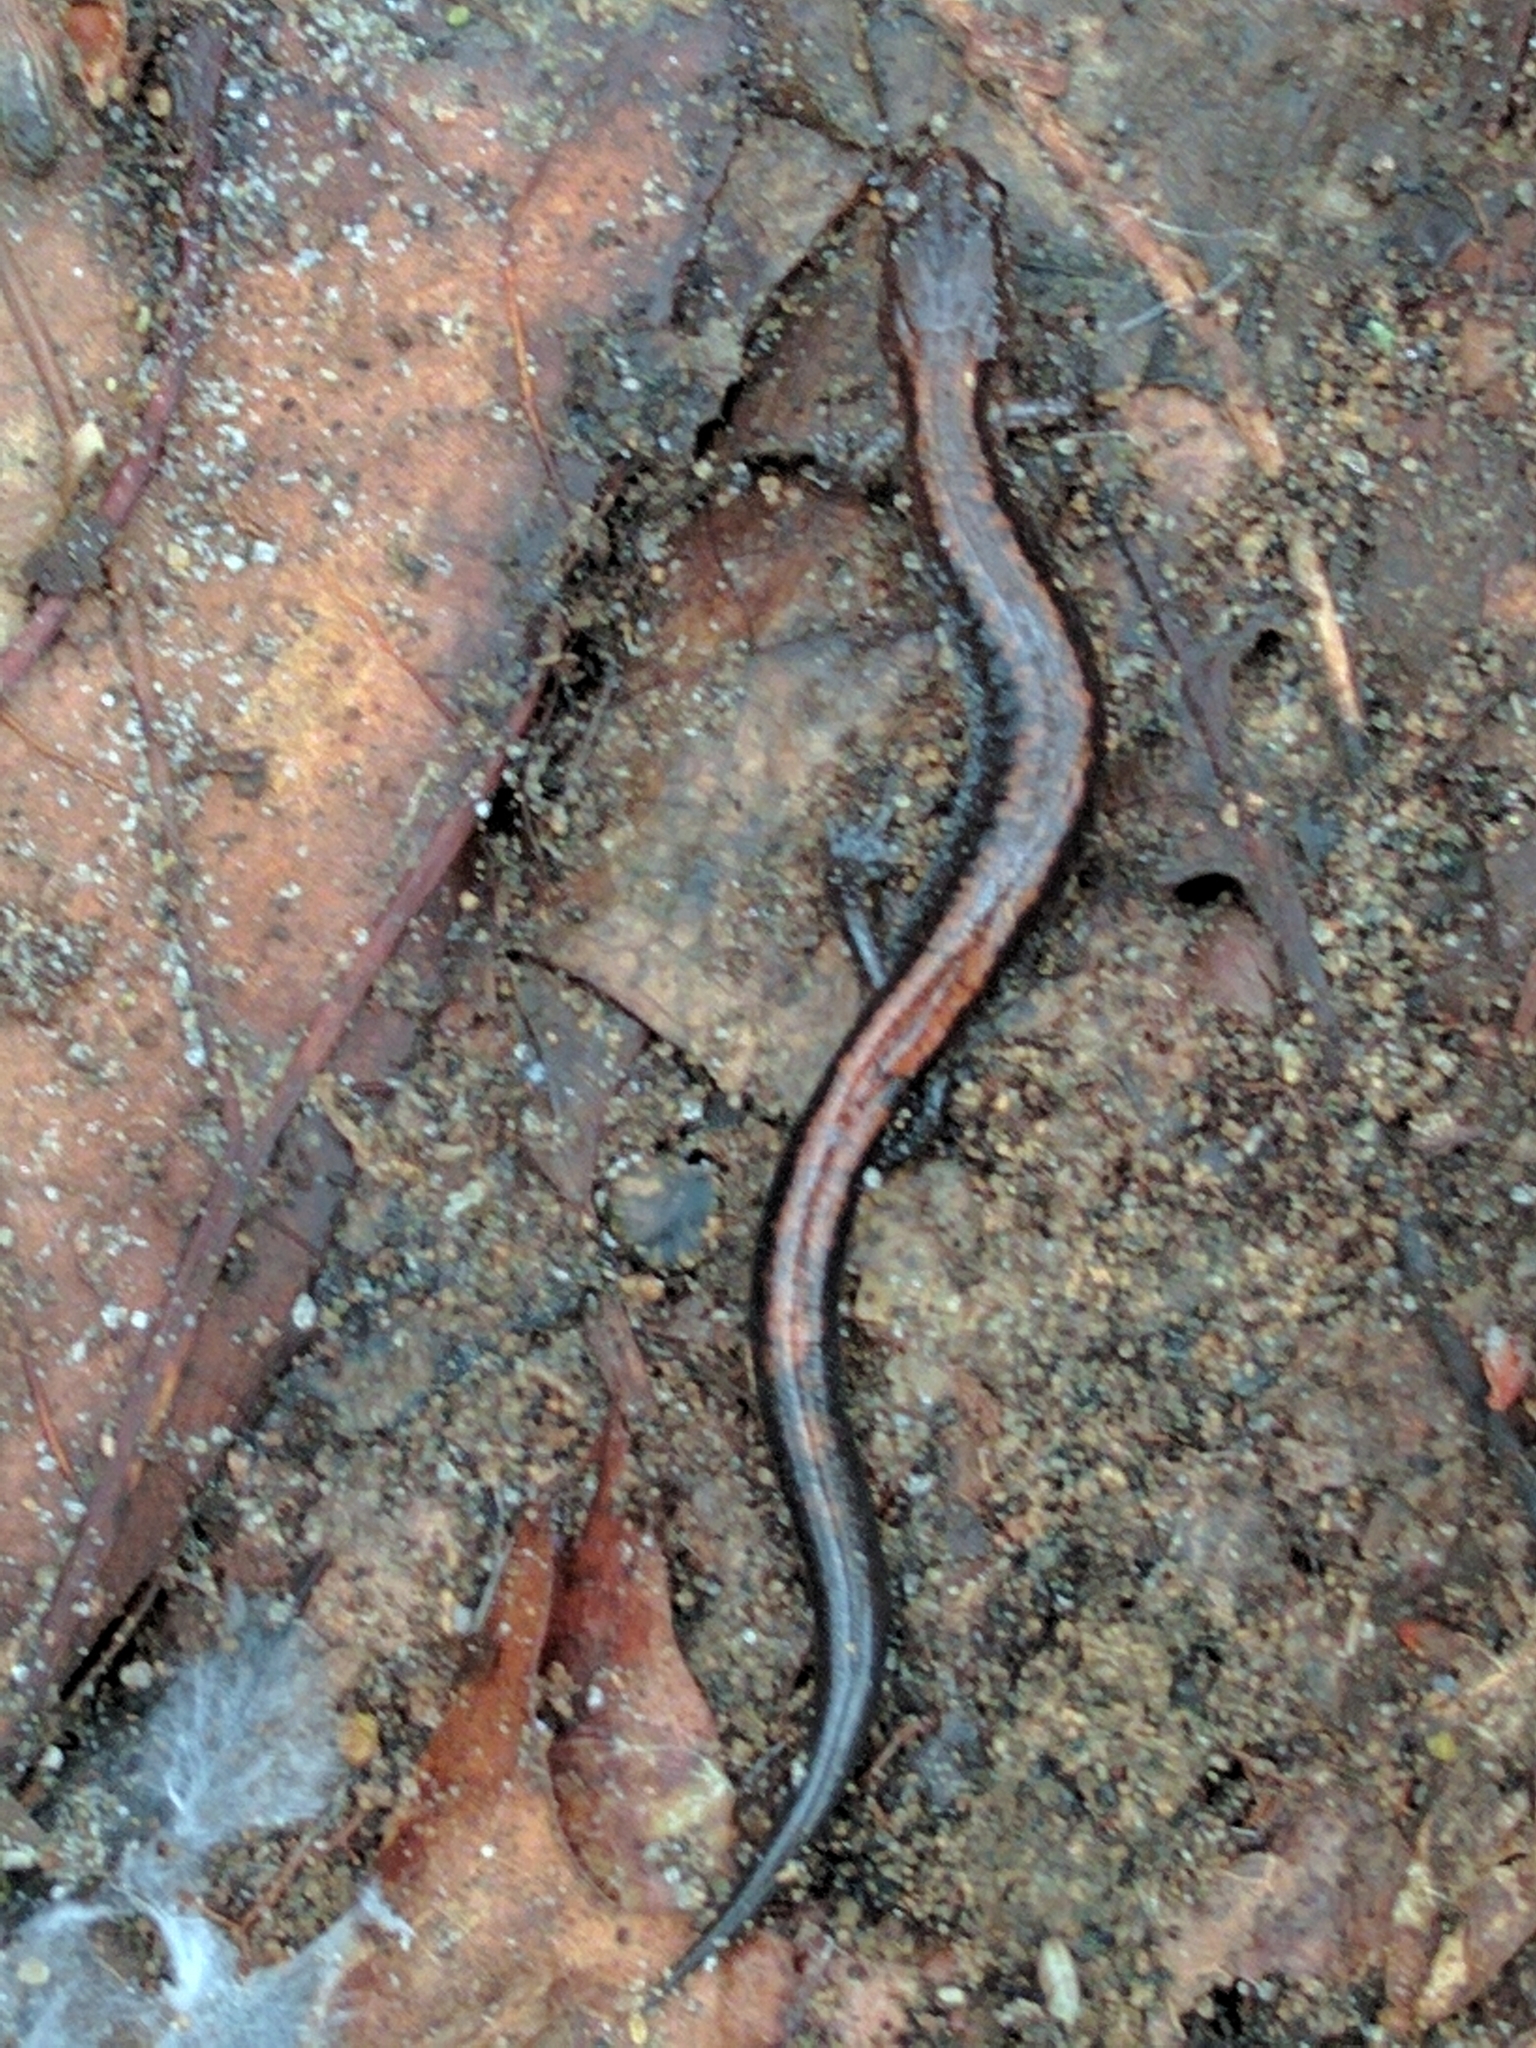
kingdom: Animalia
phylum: Chordata
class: Amphibia
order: Caudata
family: Plethodontidae
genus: Plethodon
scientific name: Plethodon cinereus
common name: Redback salamander
